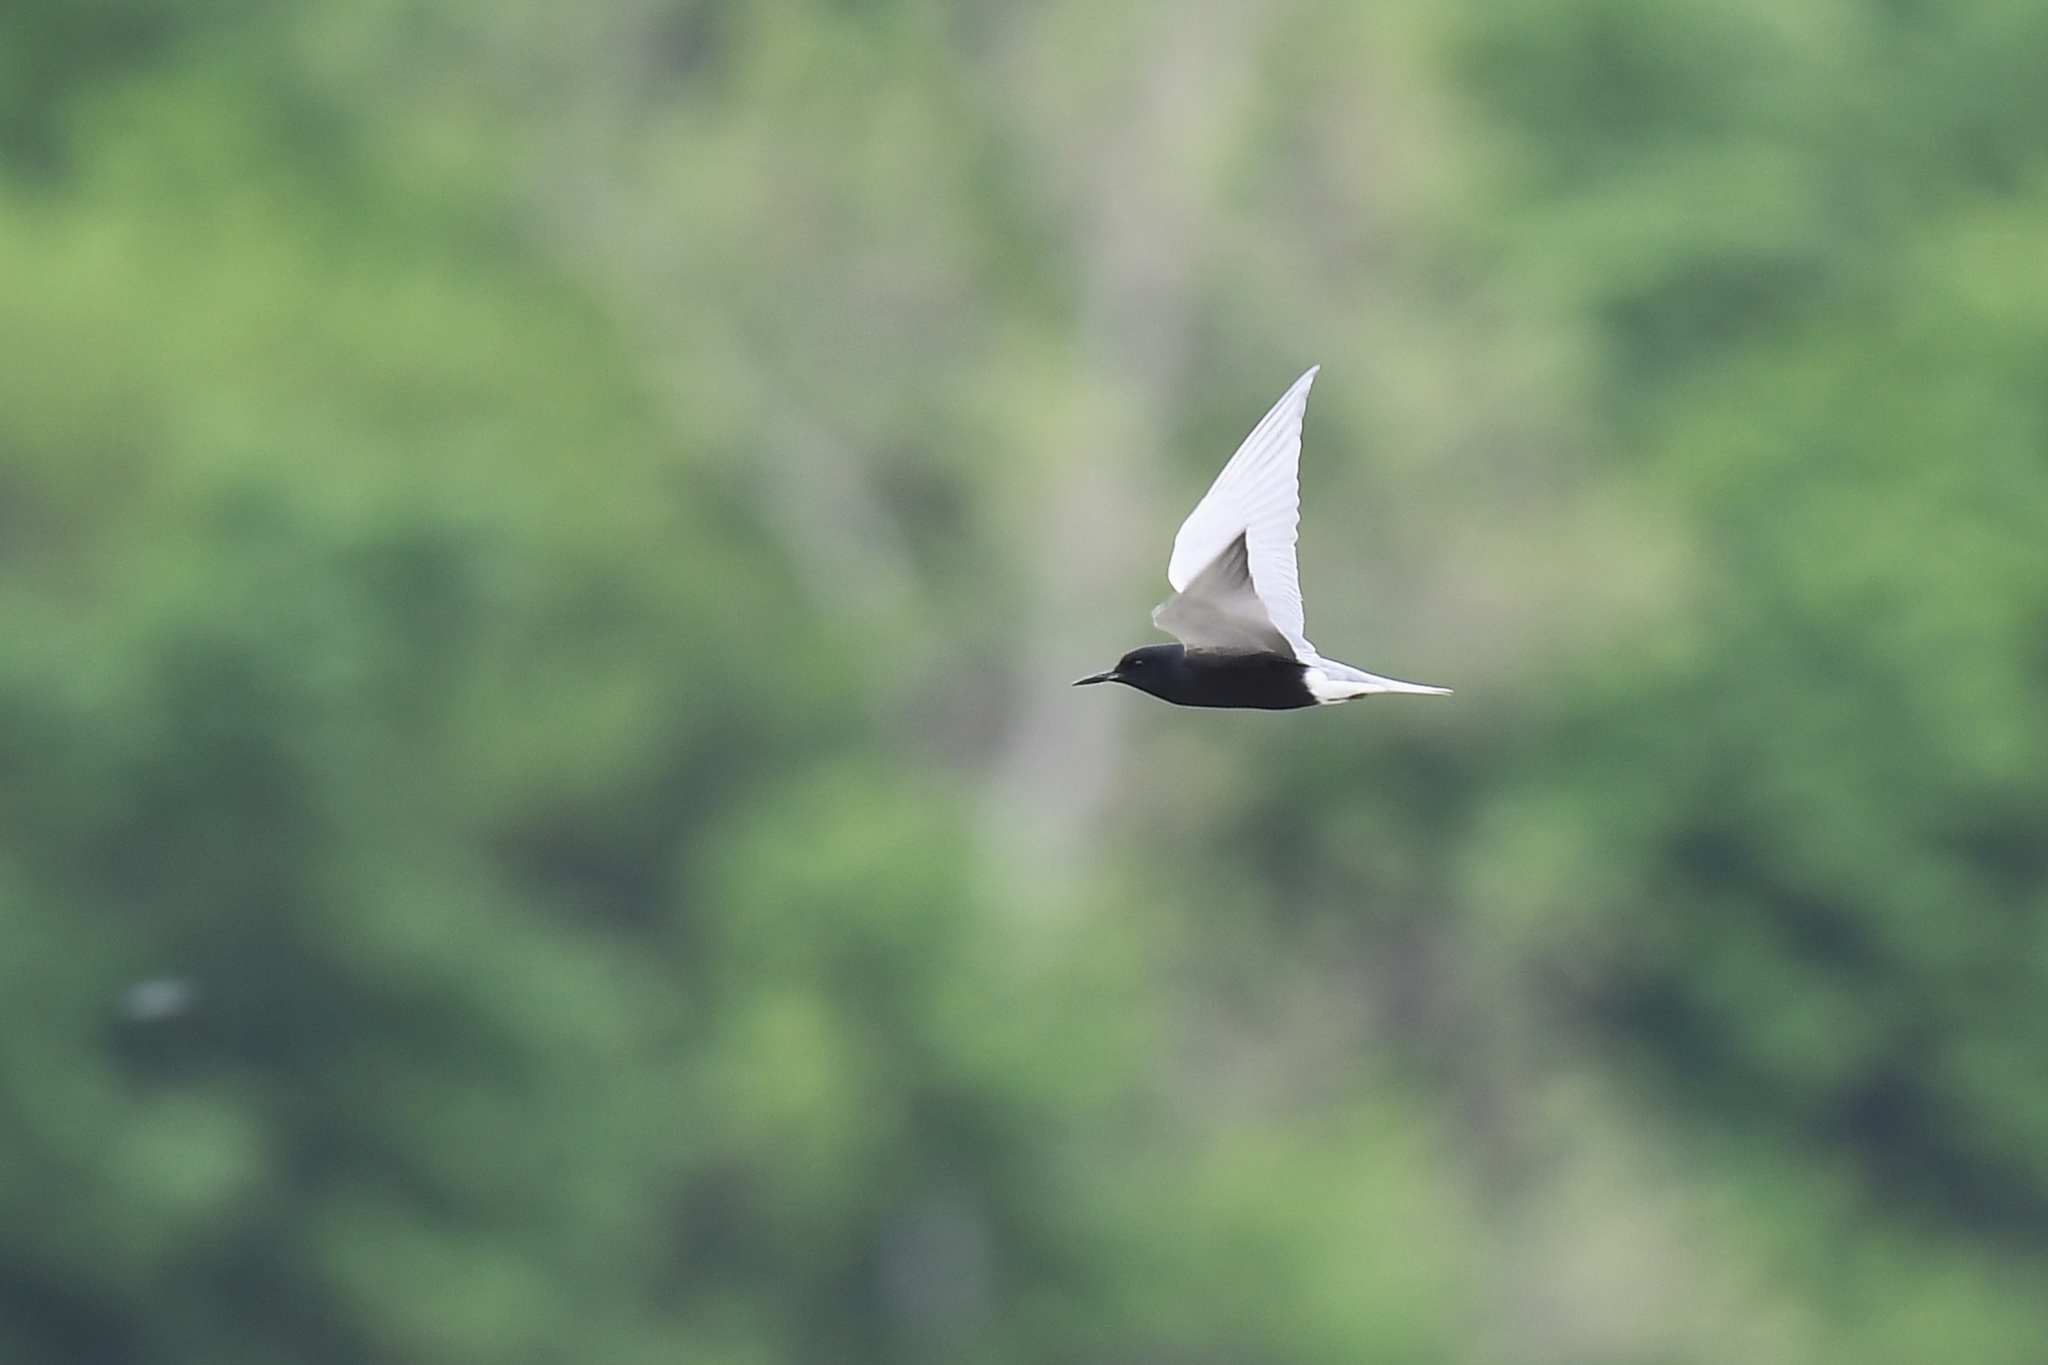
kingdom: Animalia
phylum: Chordata
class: Aves
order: Charadriiformes
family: Laridae
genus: Chlidonias
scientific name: Chlidonias niger
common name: Black tern
